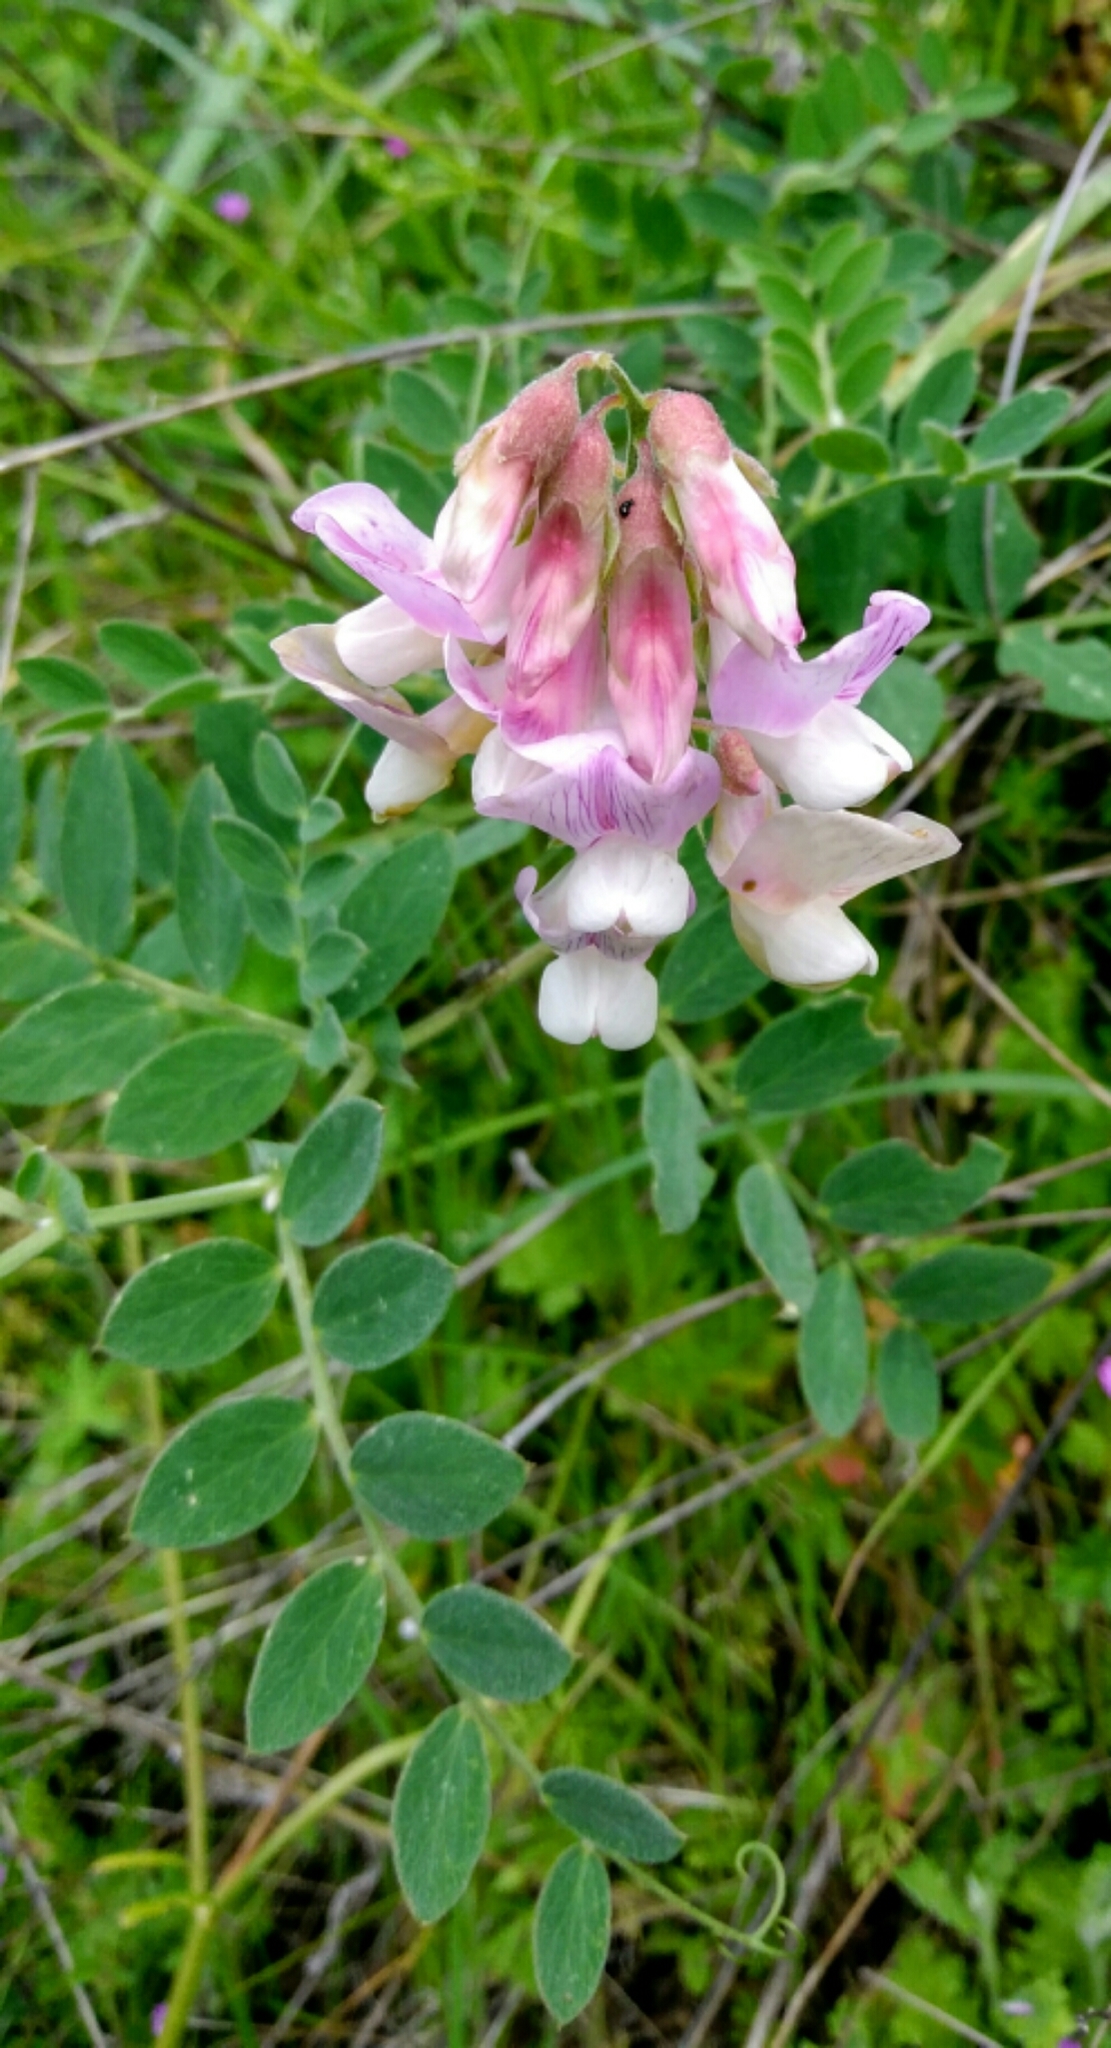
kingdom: Plantae
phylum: Tracheophyta
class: Magnoliopsida
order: Fabales
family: Fabaceae
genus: Lathyrus
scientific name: Lathyrus vestitus
